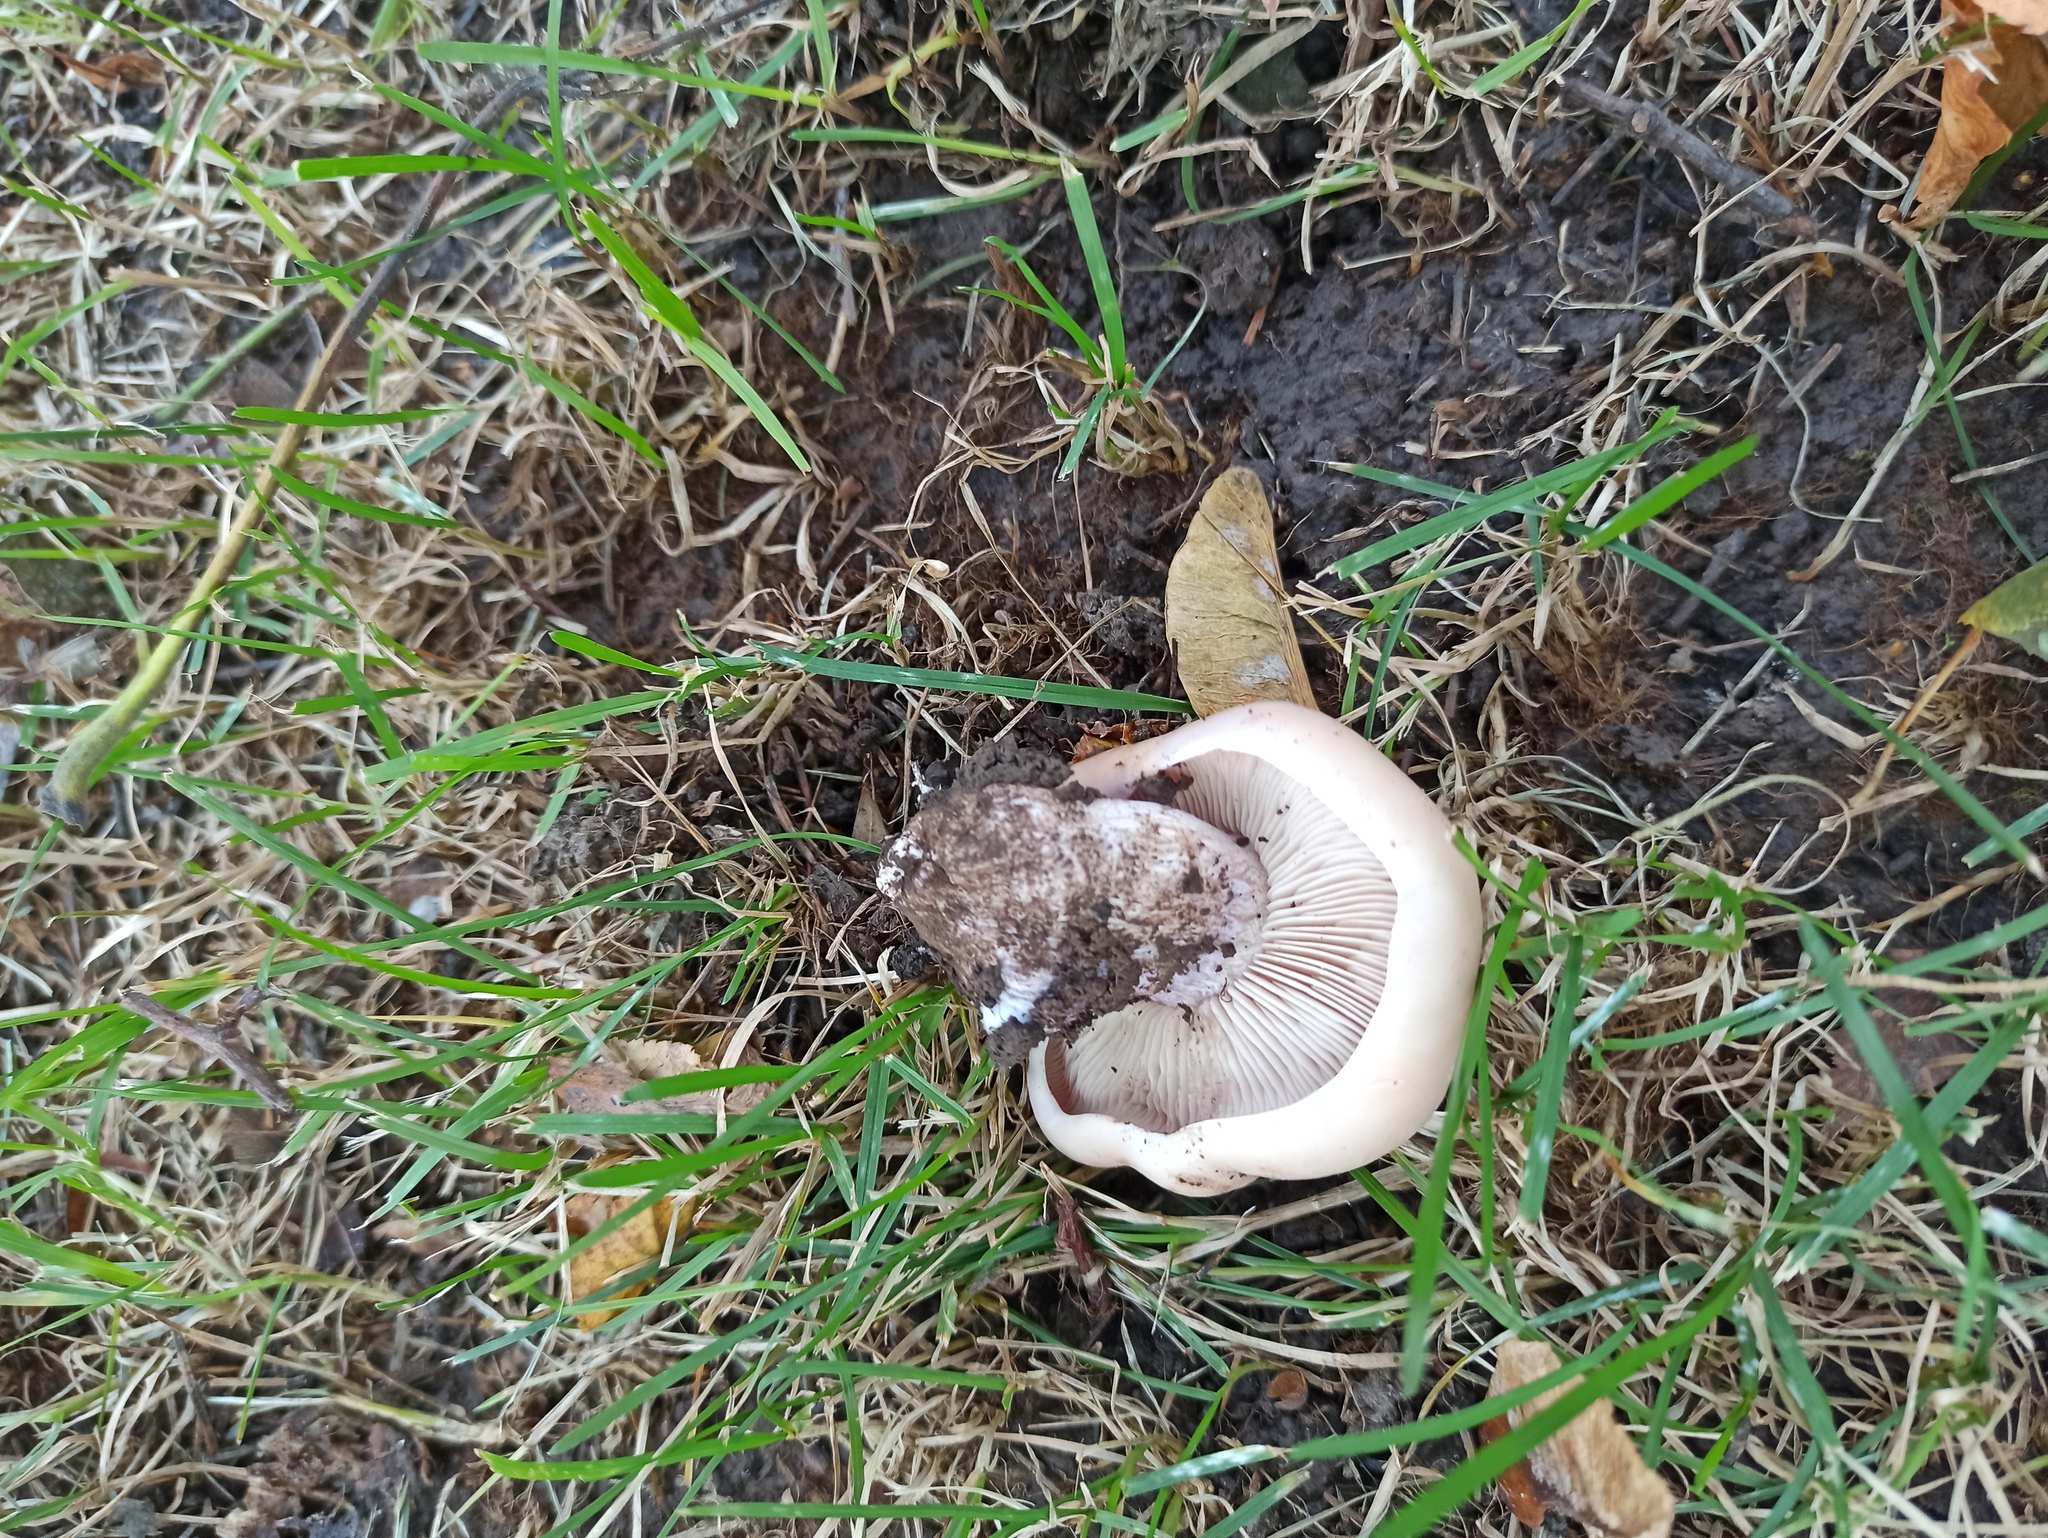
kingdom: Fungi
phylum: Basidiomycota
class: Agaricomycetes
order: Agaricales
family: Omphalotaceae
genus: Collybiopsis
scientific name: Collybiopsis peronata
